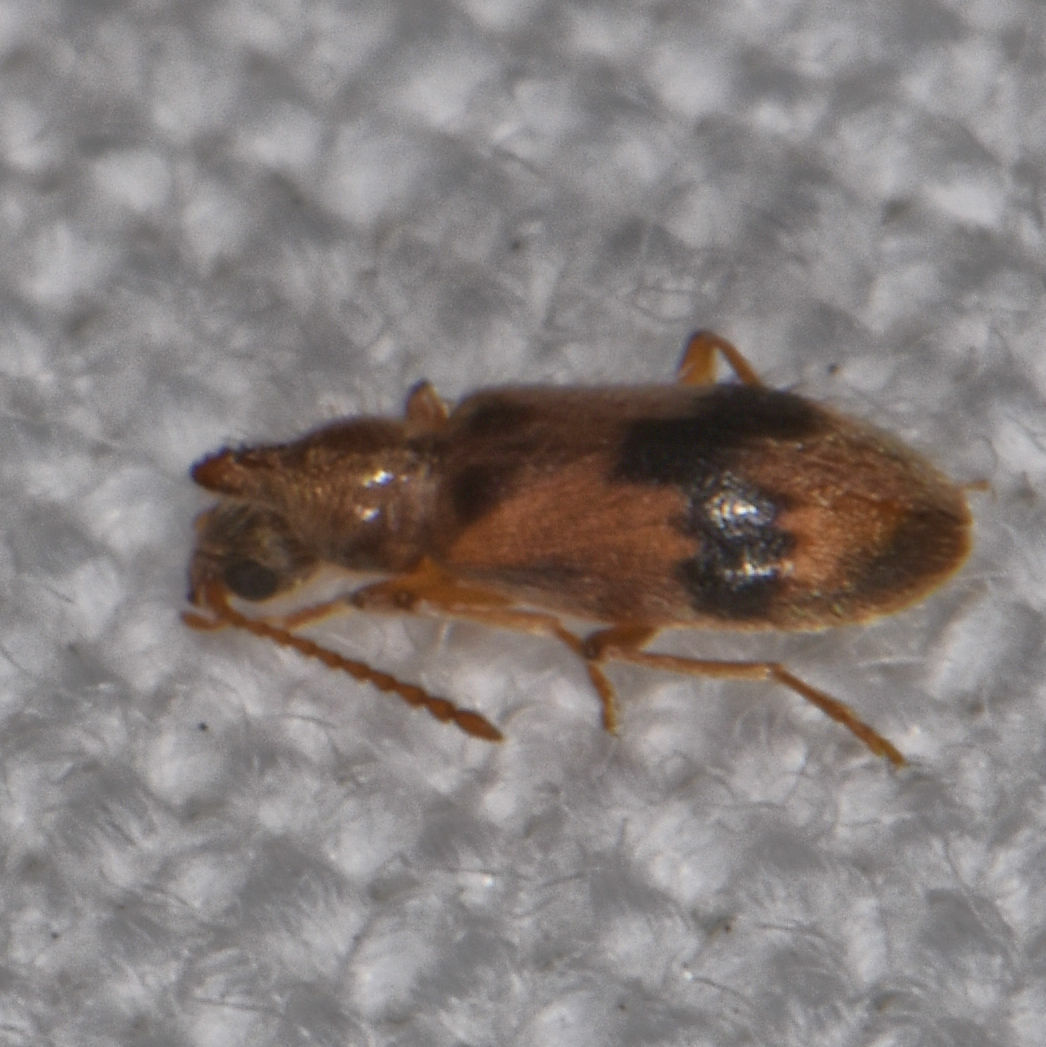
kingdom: Animalia
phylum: Arthropoda
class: Insecta
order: Coleoptera
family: Anthicidae
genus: Notoxus
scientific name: Notoxus desertus
